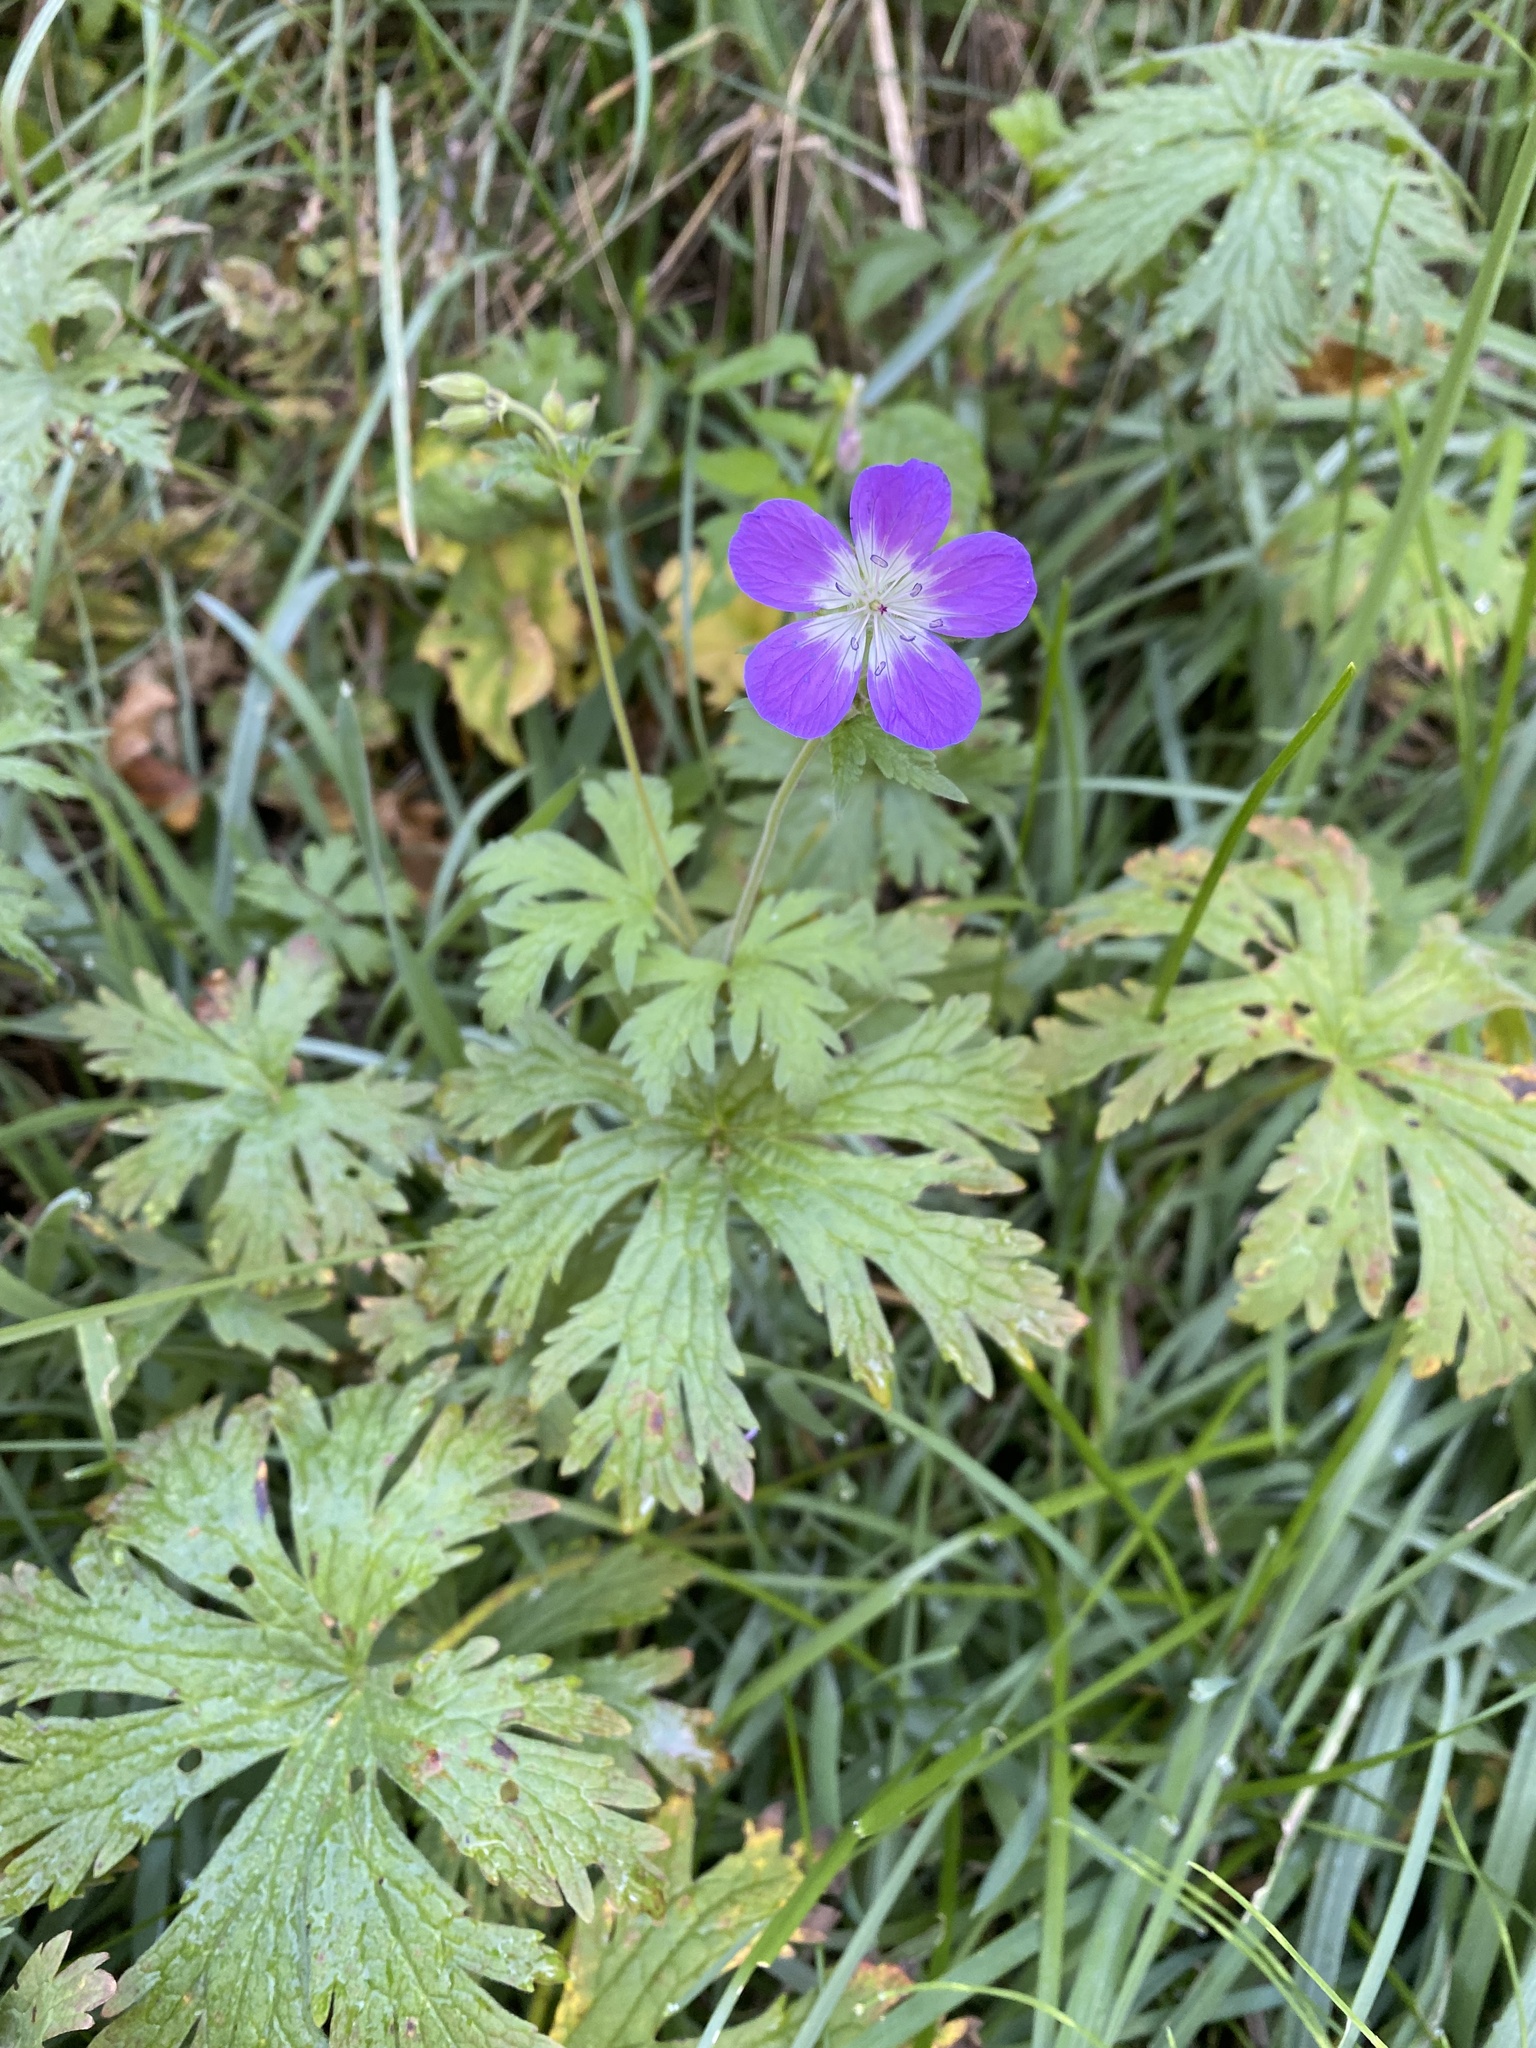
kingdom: Plantae
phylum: Tracheophyta
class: Magnoliopsida
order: Geraniales
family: Geraniaceae
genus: Geranium
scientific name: Geranium sylvaticum
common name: Wood crane's-bill
